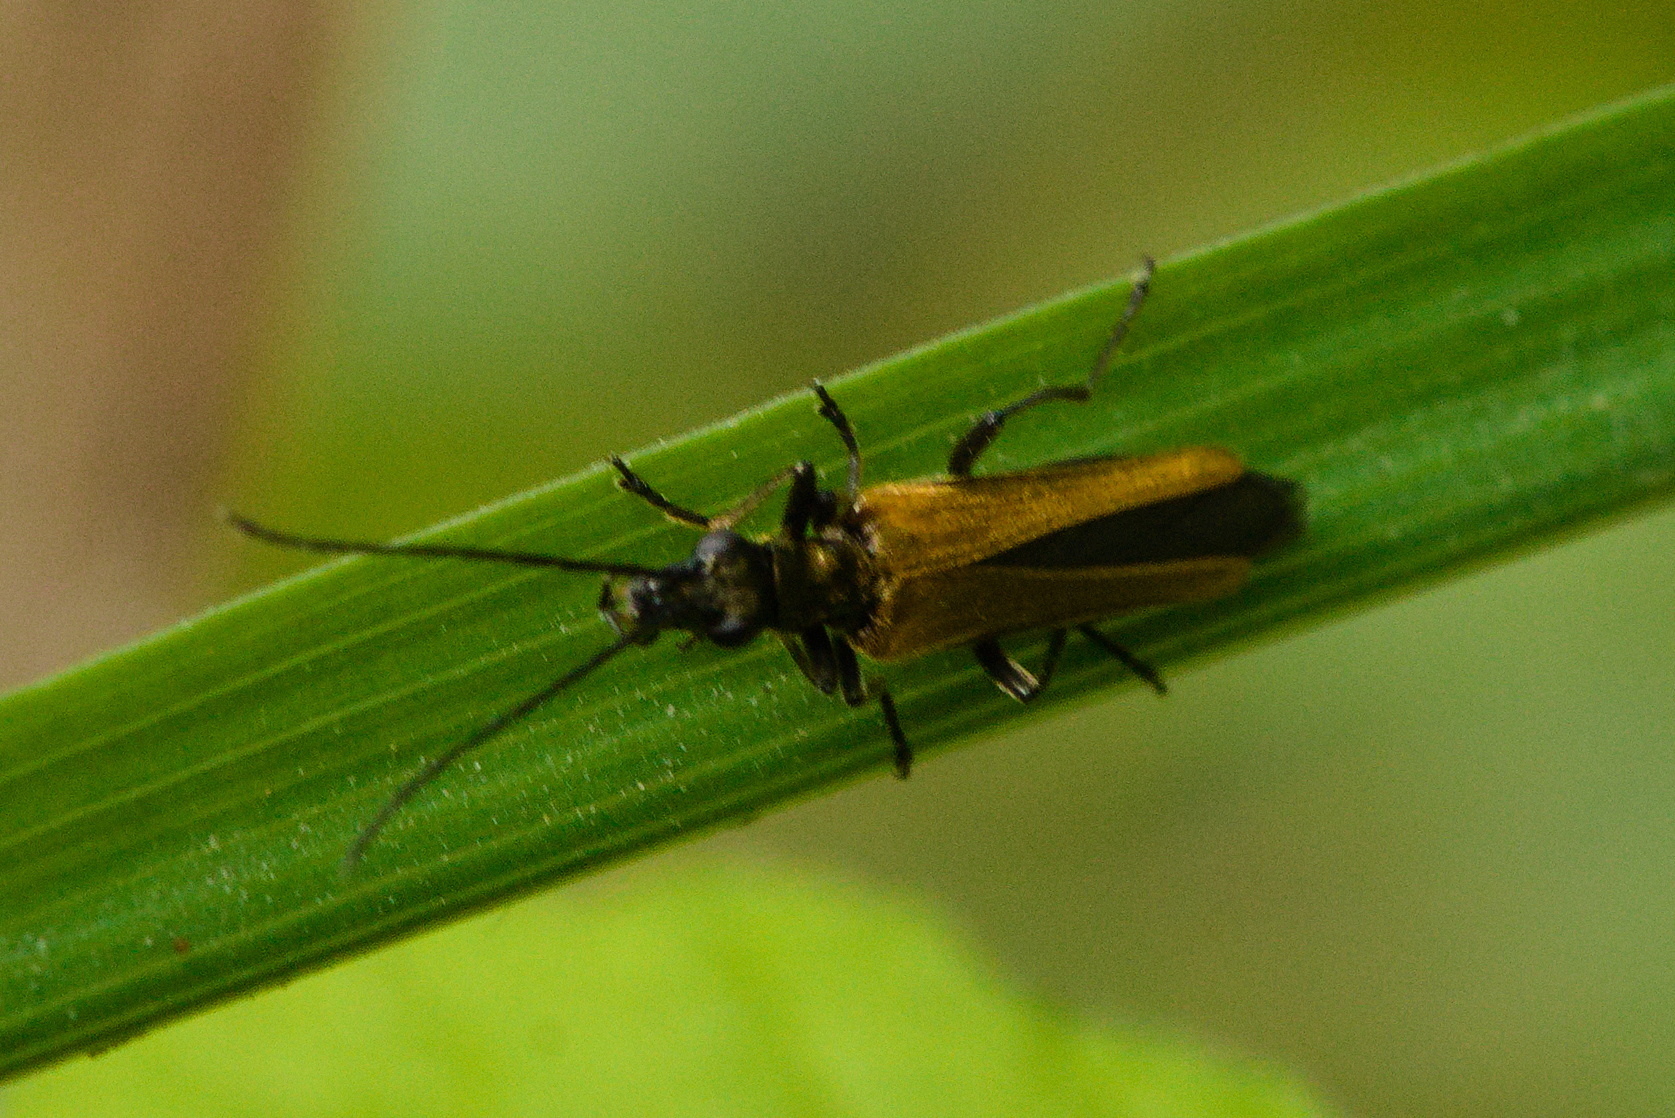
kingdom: Animalia
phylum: Arthropoda
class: Insecta
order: Coleoptera
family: Oedemeridae
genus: Oedemera
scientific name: Oedemera femorata
